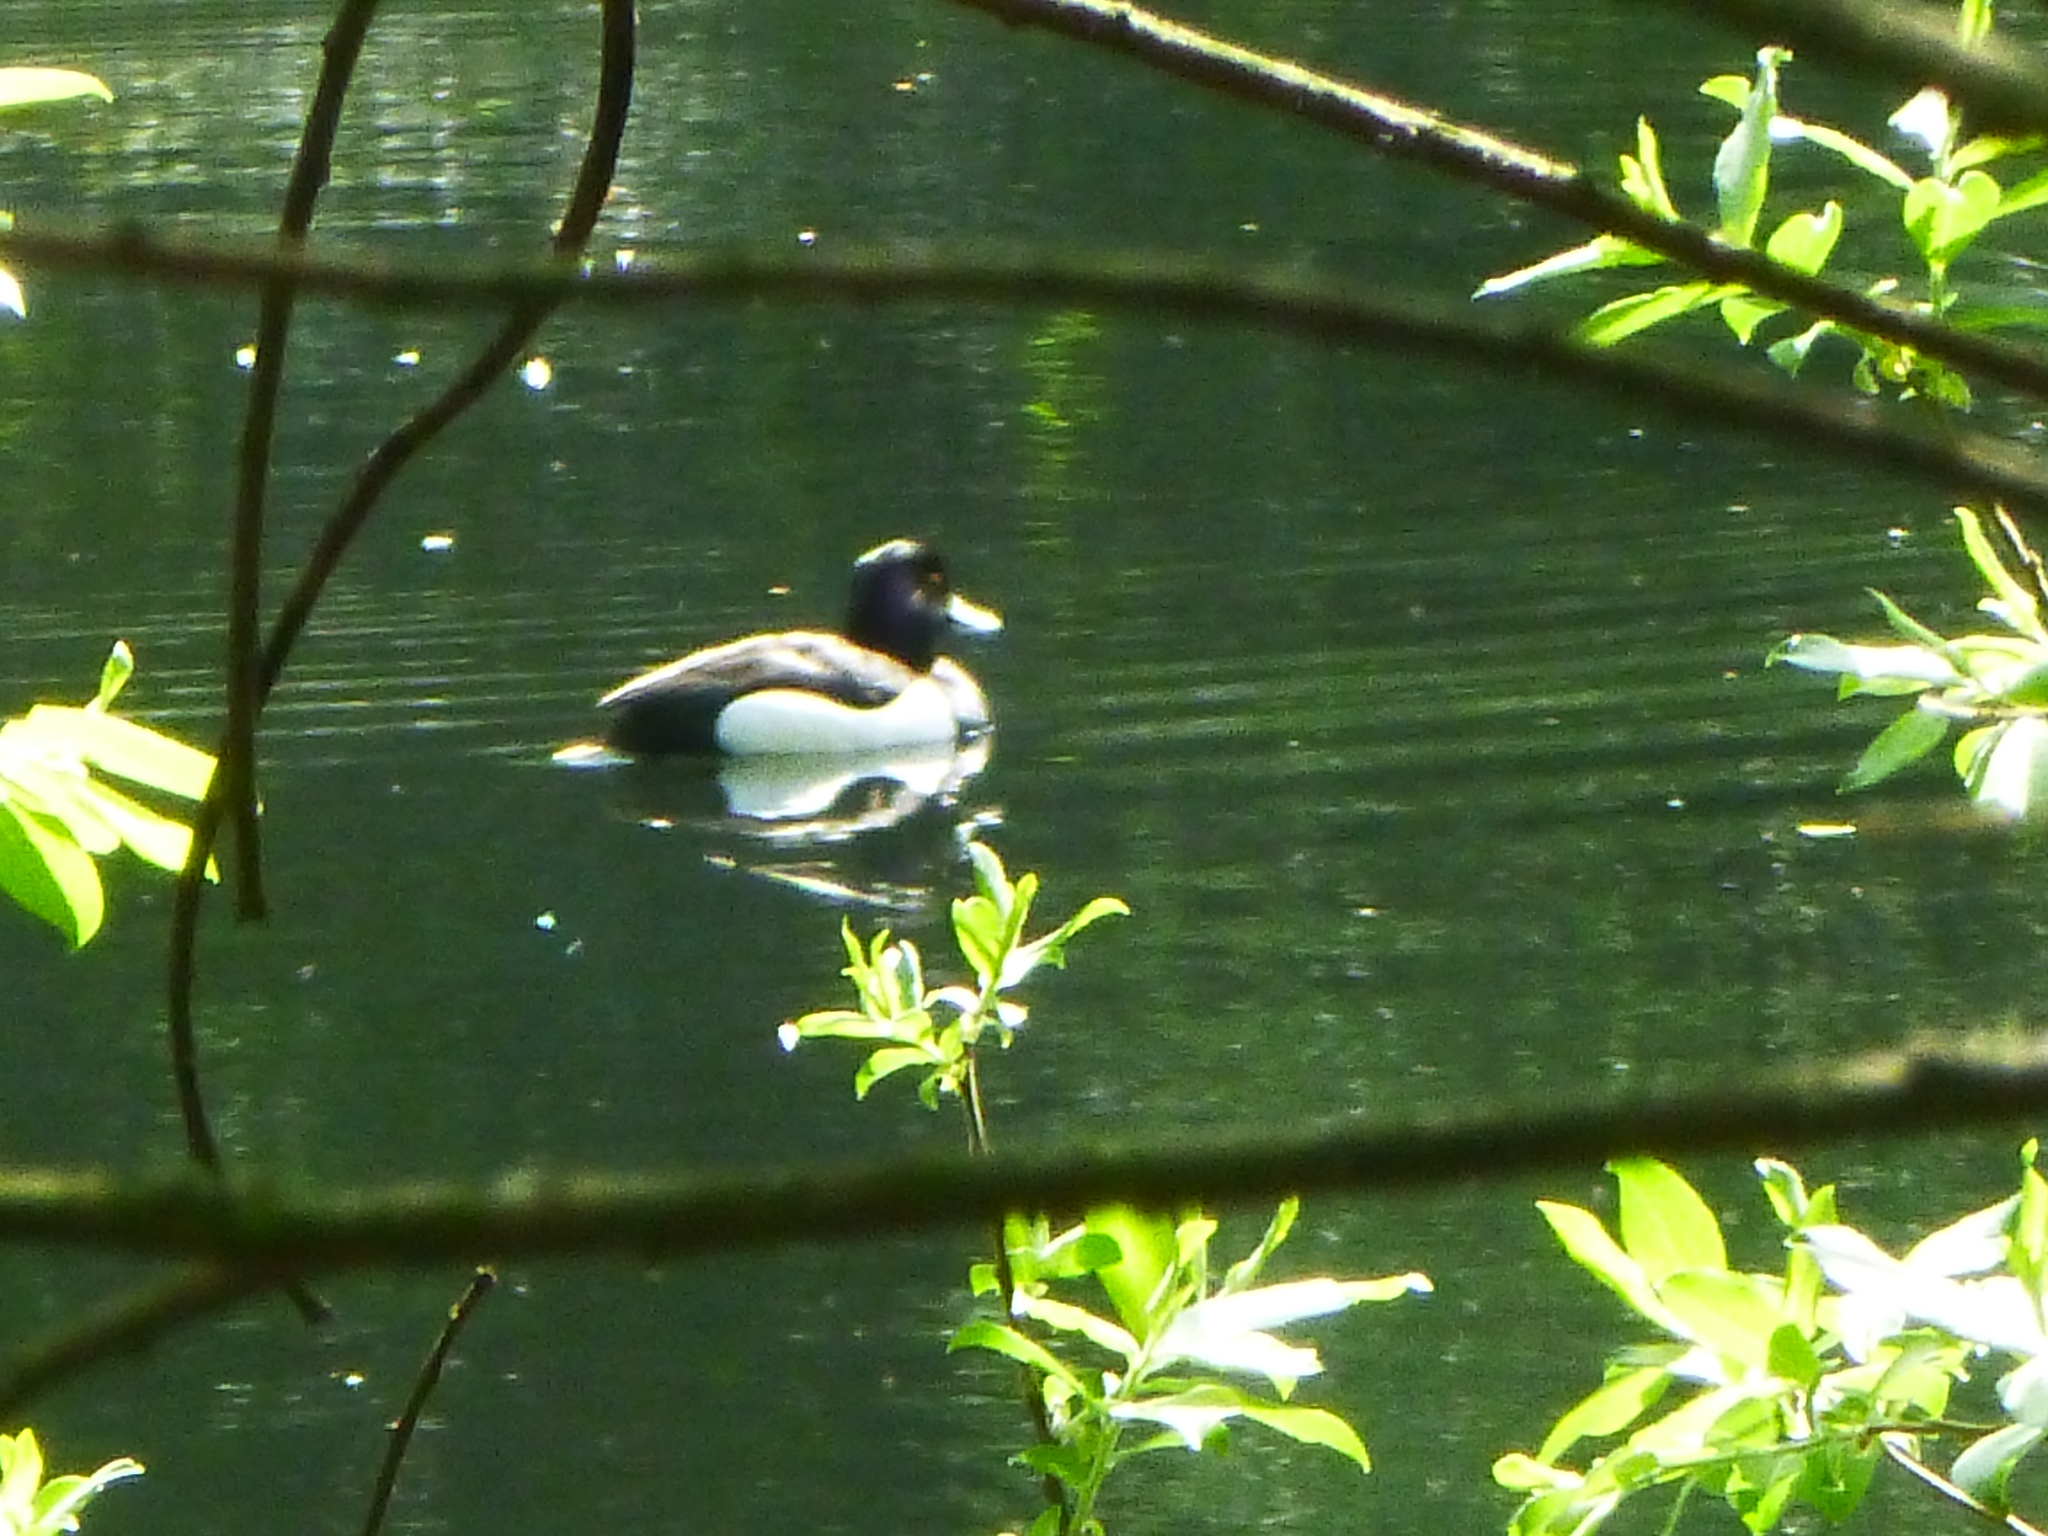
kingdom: Animalia
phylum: Chordata
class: Aves
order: Anseriformes
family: Anatidae
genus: Aythya
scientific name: Aythya fuligula
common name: Tufted duck
